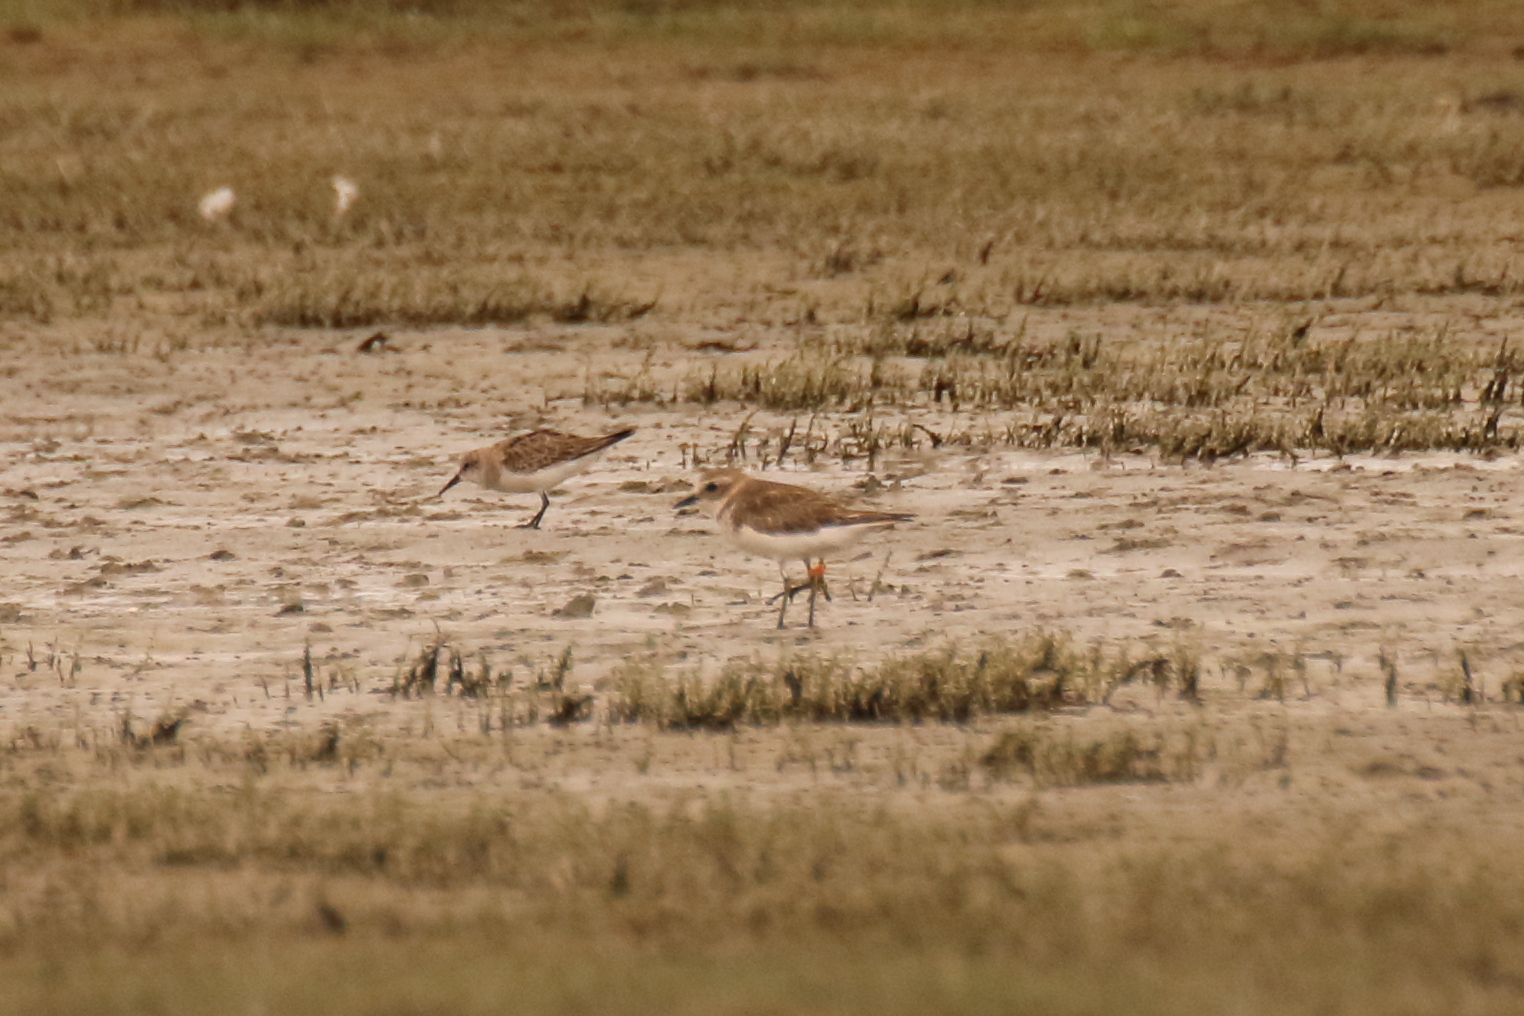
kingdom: Animalia
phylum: Chordata
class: Aves
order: Charadriiformes
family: Charadriidae
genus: Anarhynchus
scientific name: Anarhynchus
